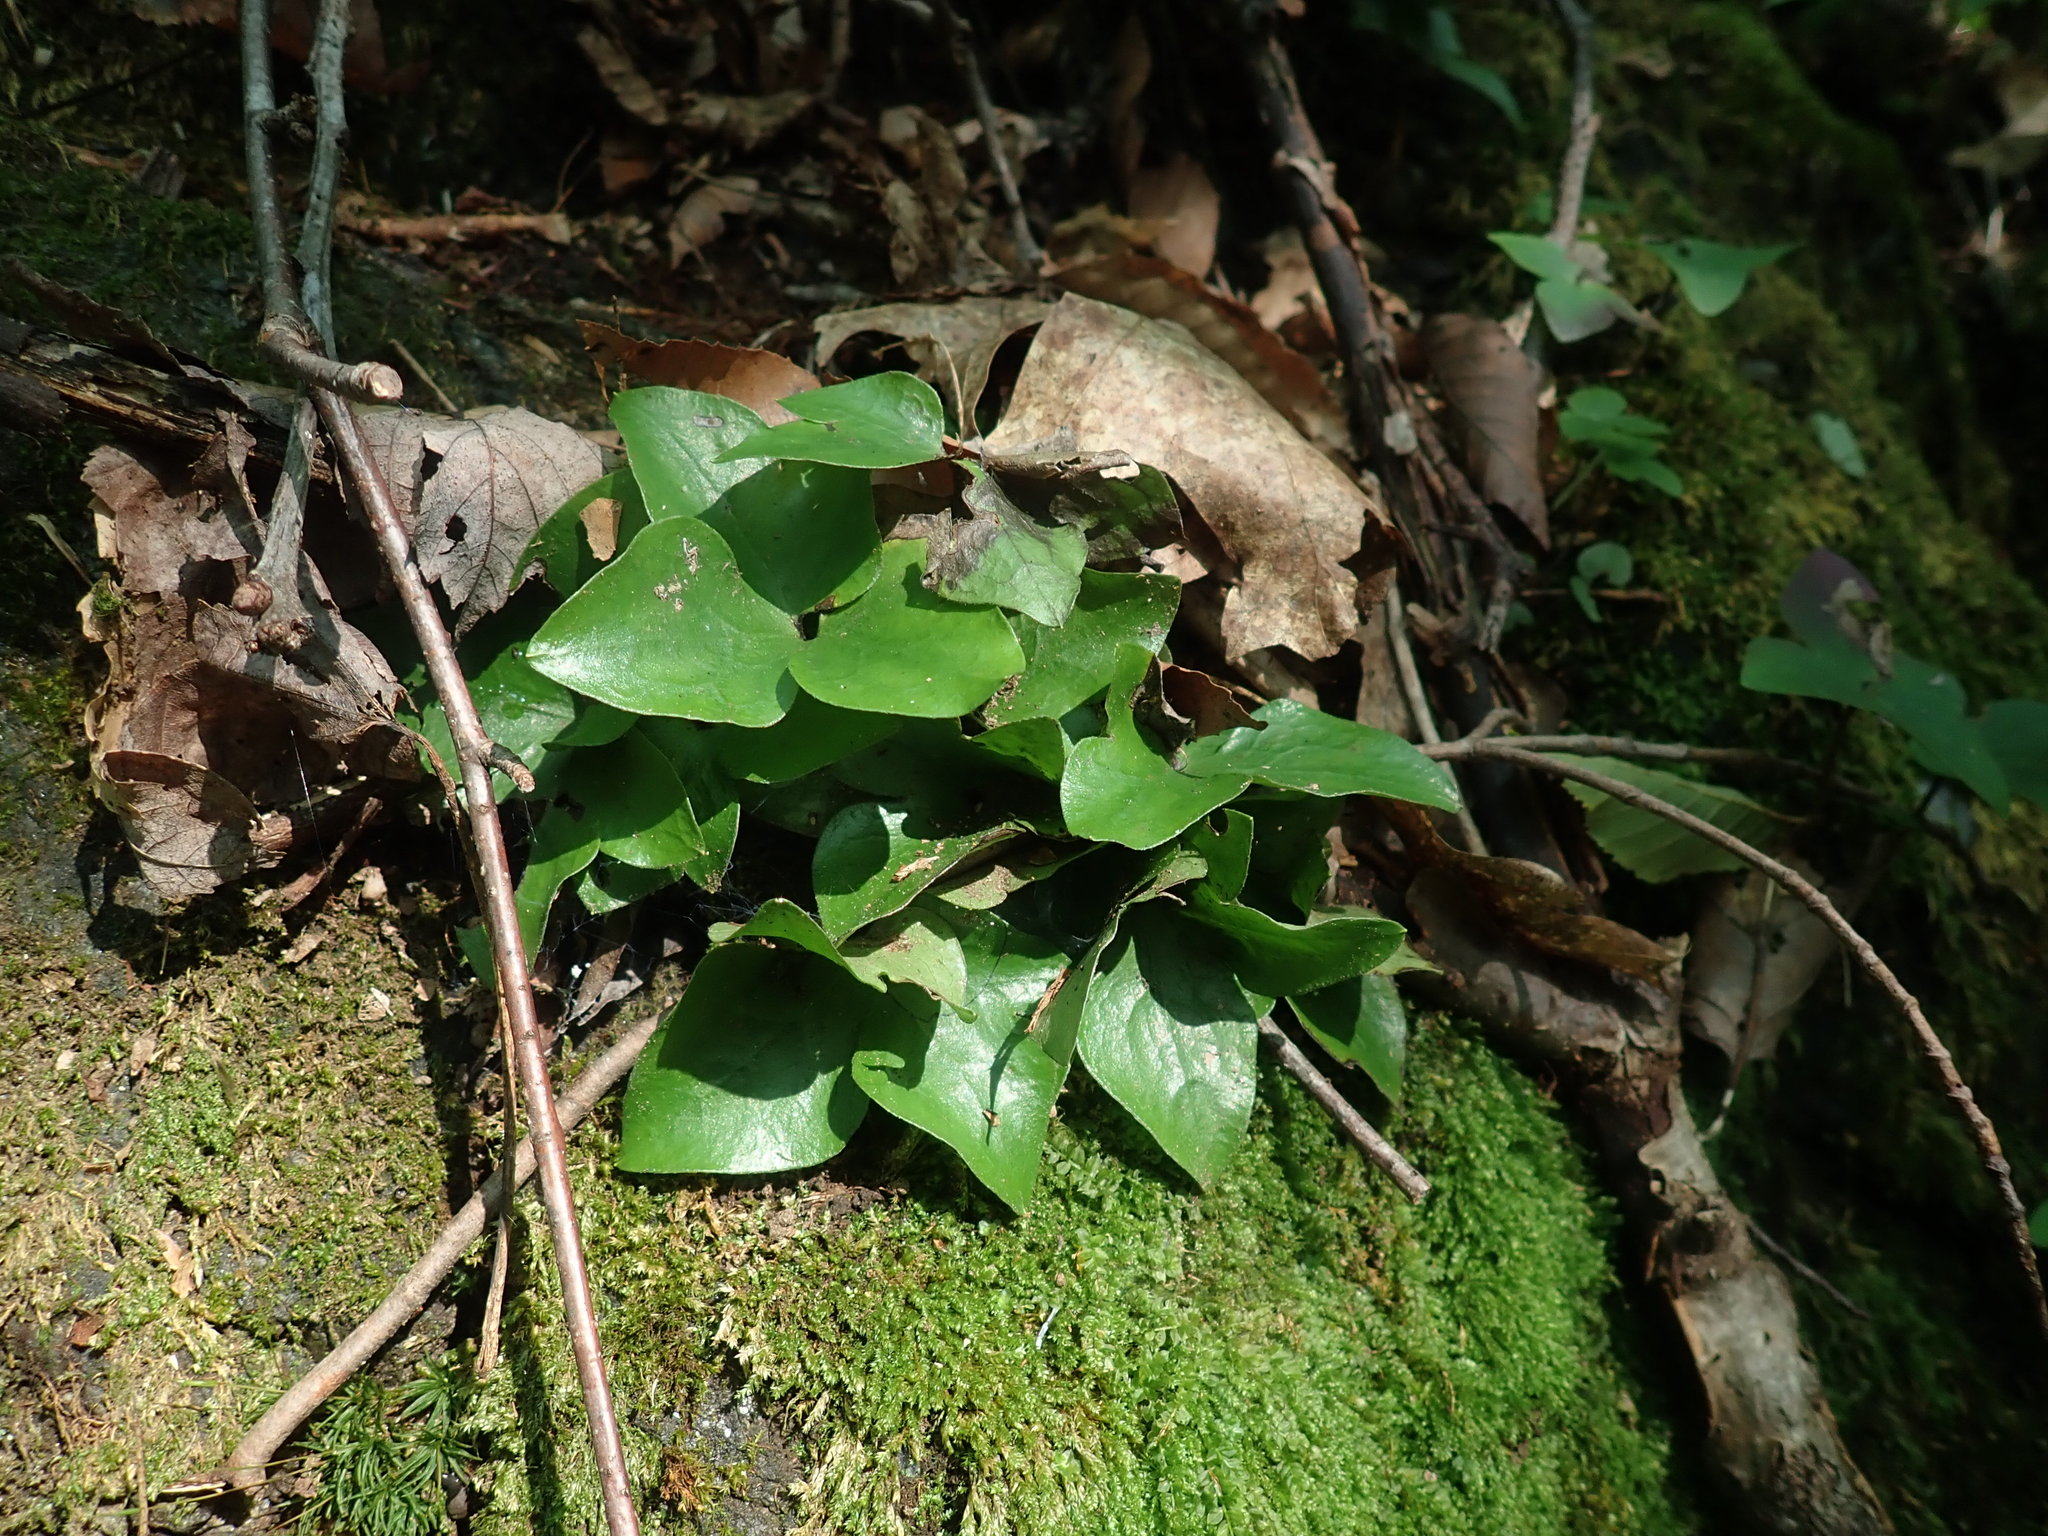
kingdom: Plantae
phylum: Tracheophyta
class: Magnoliopsida
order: Ranunculales
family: Ranunculaceae
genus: Hepatica
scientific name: Hepatica acutiloba
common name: Sharp-lobed hepatica
